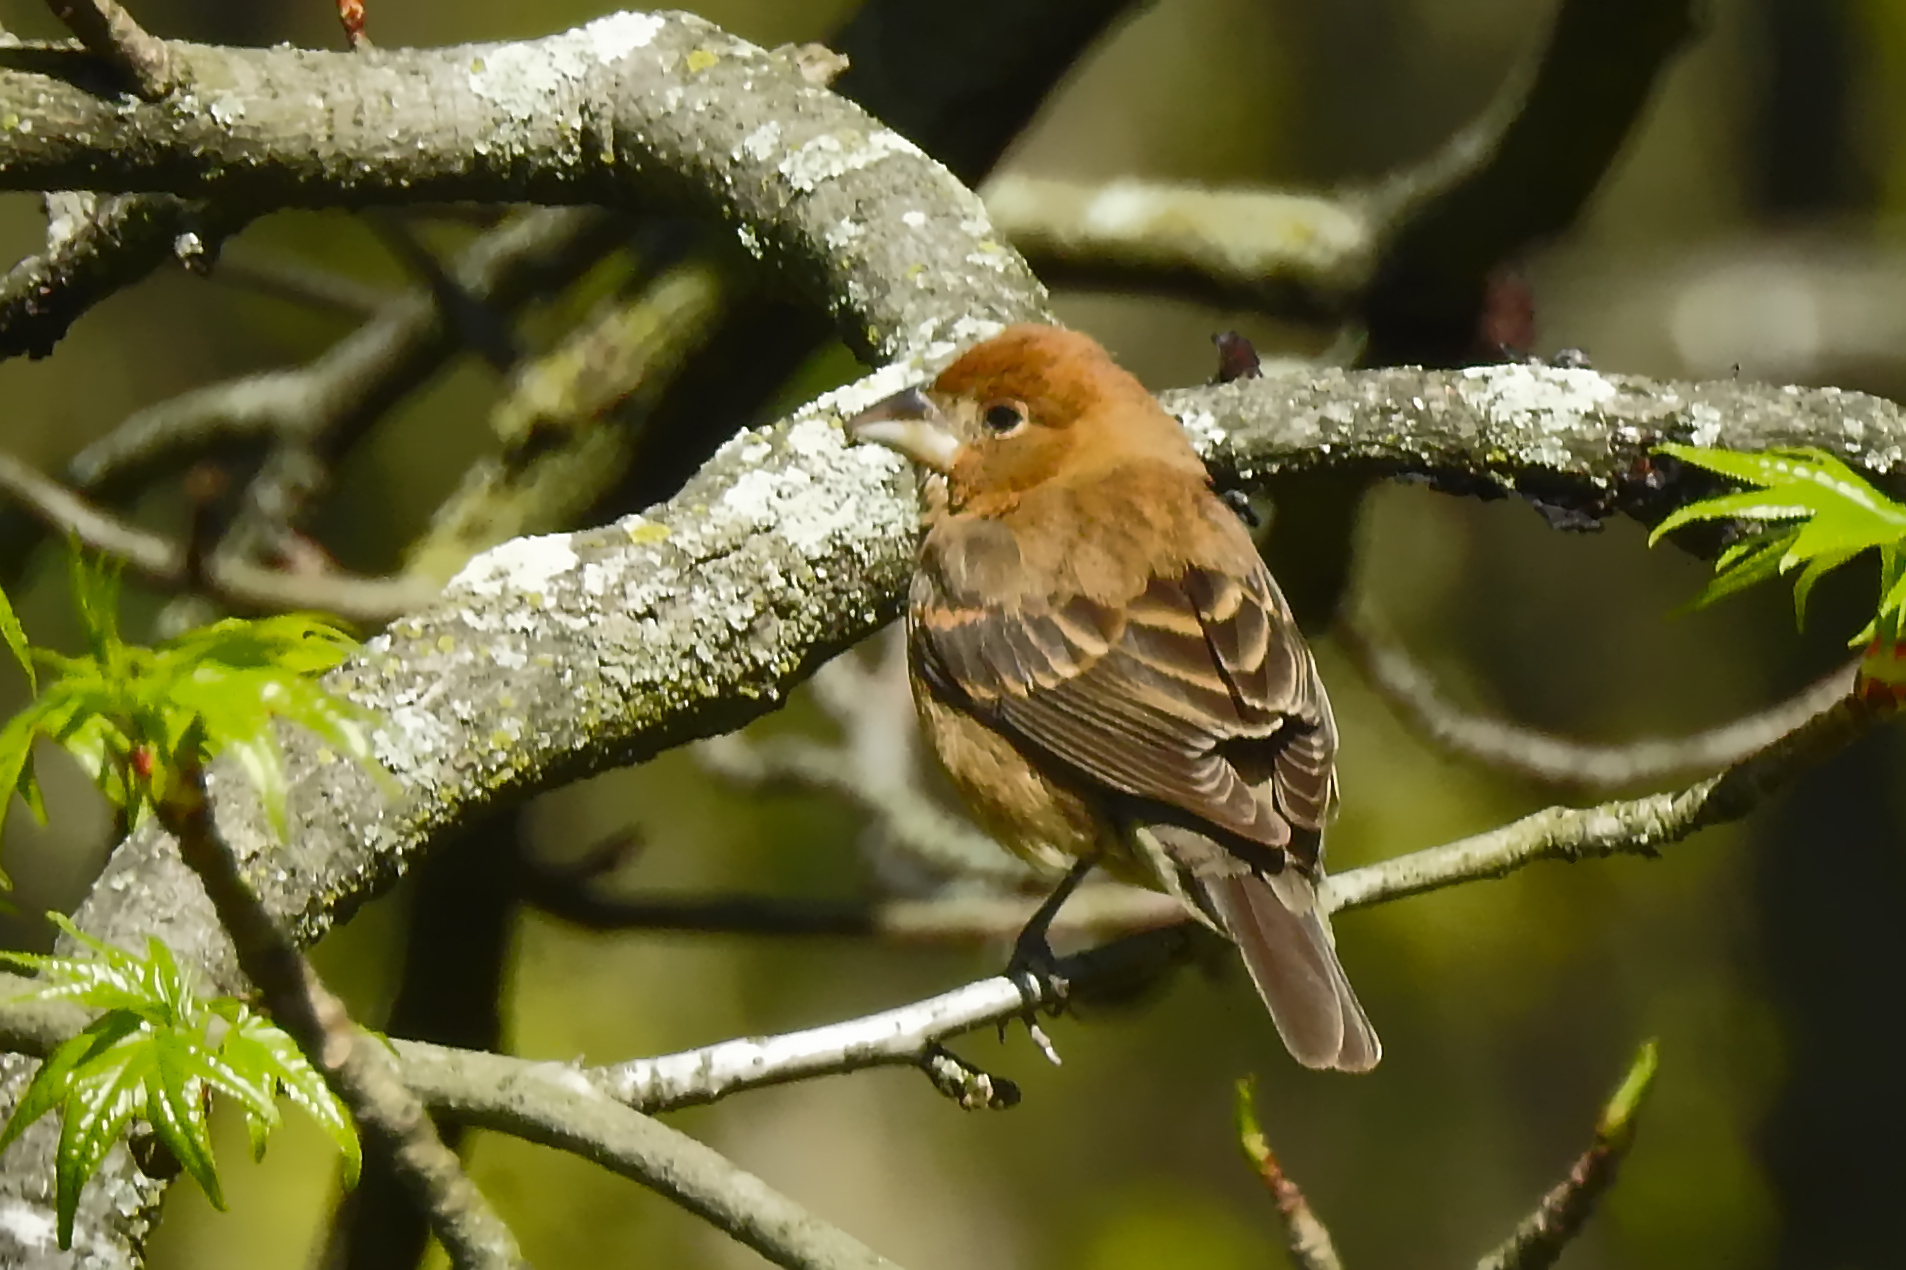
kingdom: Animalia
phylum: Chordata
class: Aves
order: Passeriformes
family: Cardinalidae
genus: Passerina
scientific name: Passerina caerulea
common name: Blue grosbeak
